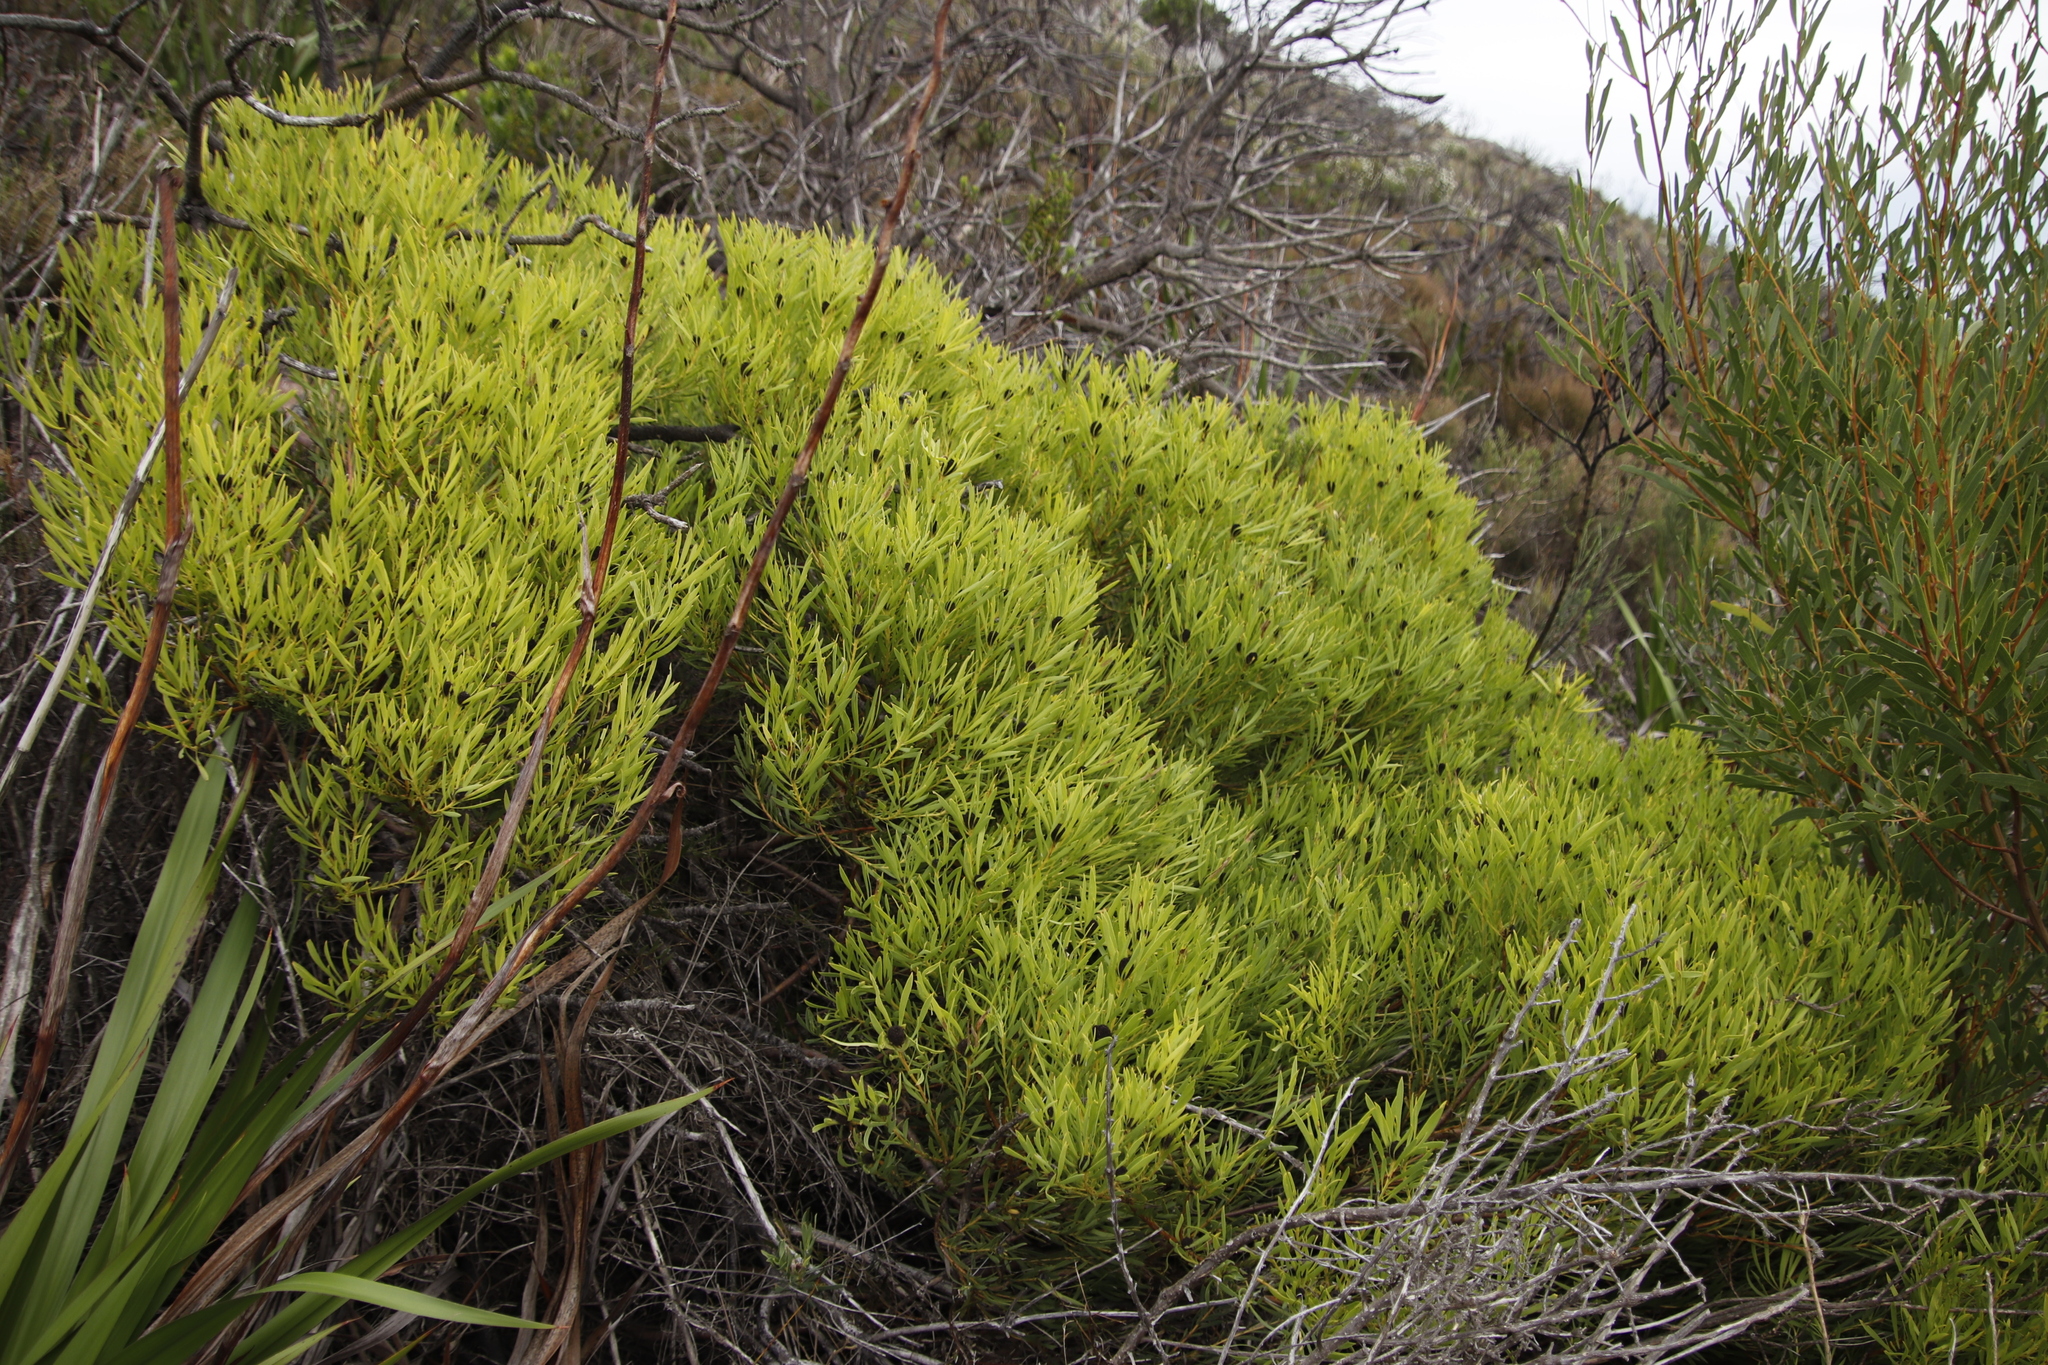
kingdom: Plantae
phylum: Tracheophyta
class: Magnoliopsida
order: Proteales
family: Proteaceae
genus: Leucadendron
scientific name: Leucadendron salignum
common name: Common sunshine conebush
